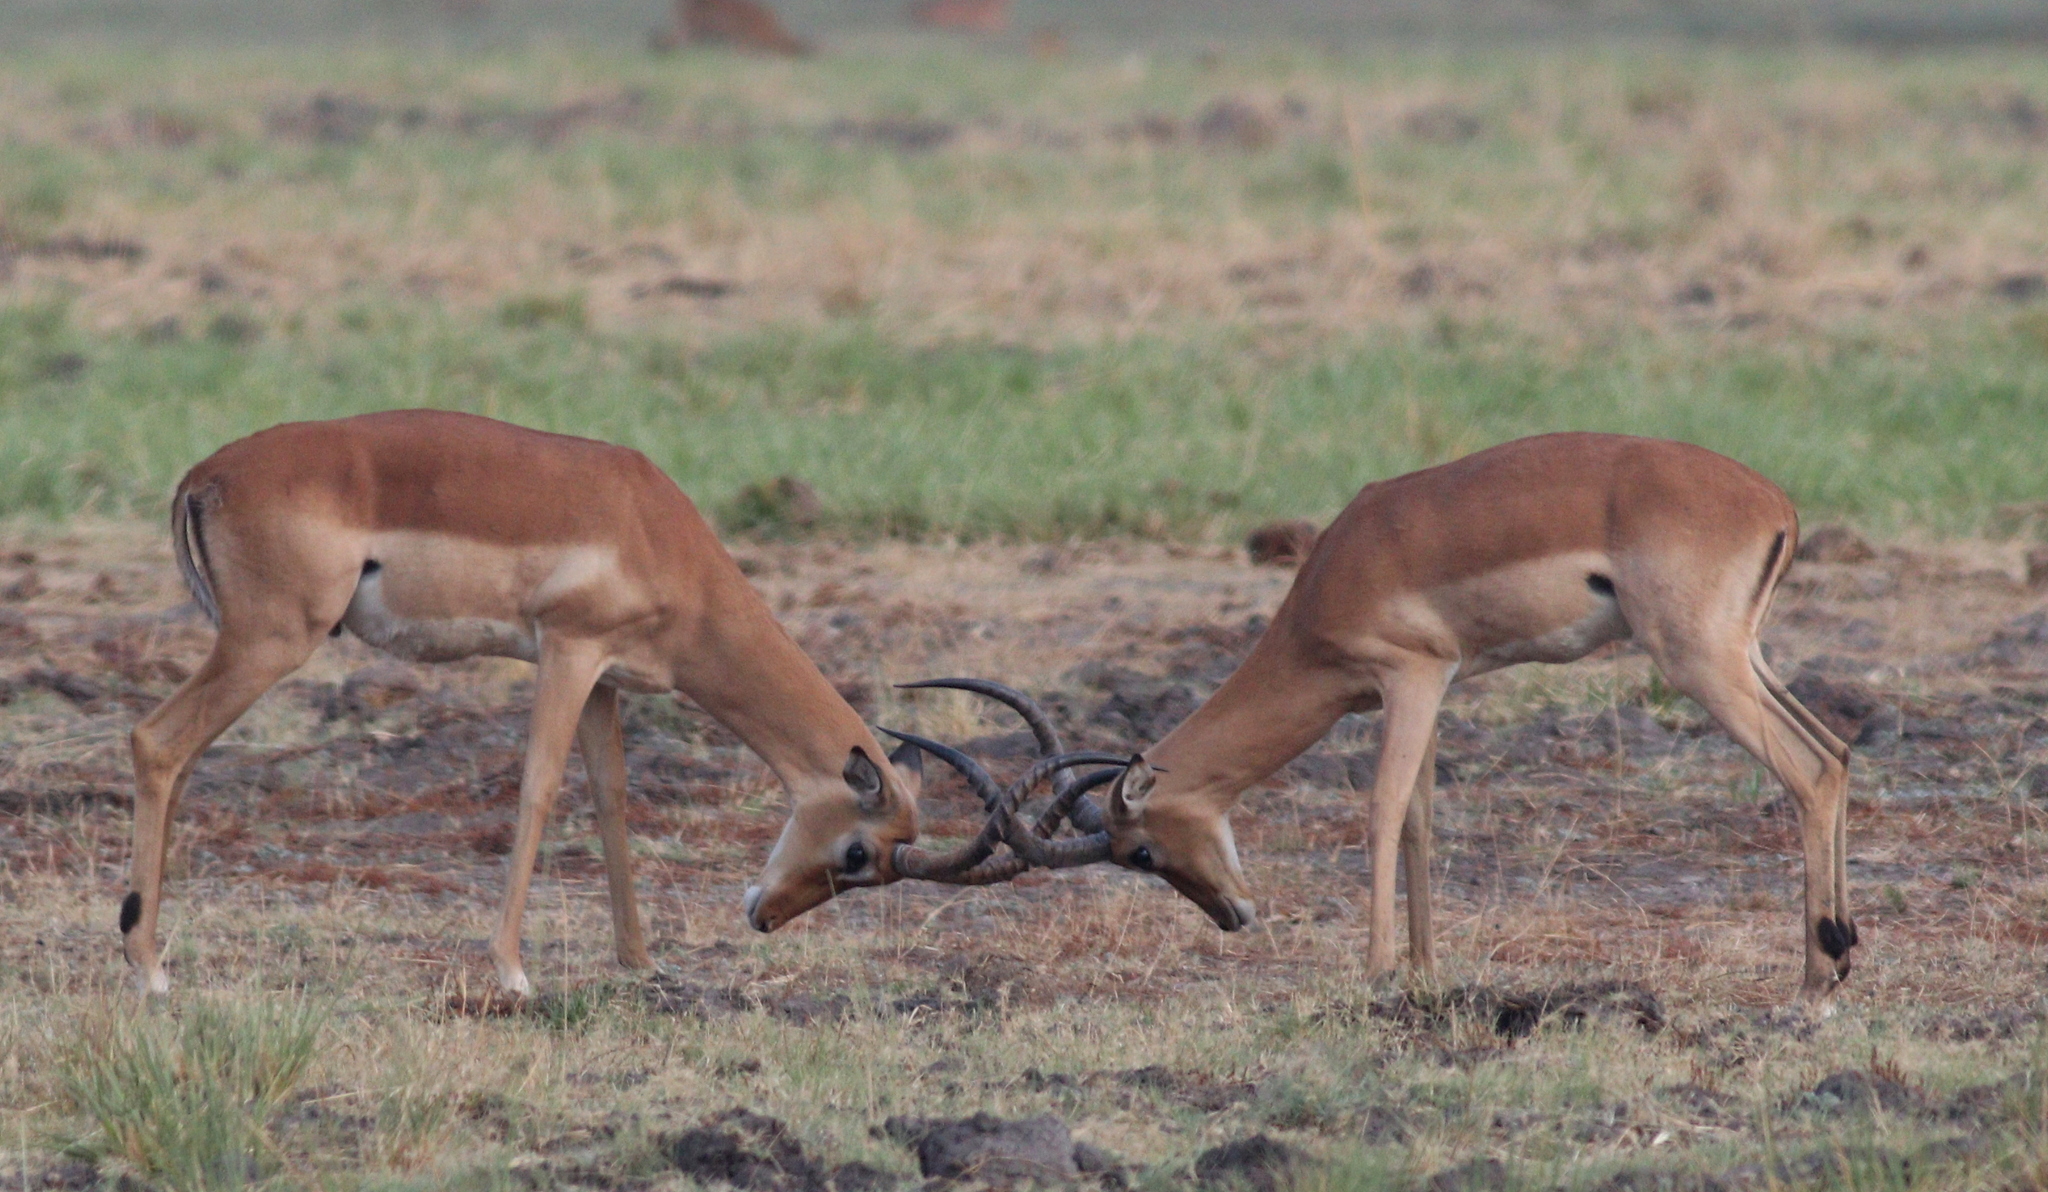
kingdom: Animalia
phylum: Chordata
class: Mammalia
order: Artiodactyla
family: Bovidae
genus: Aepyceros
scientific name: Aepyceros melampus
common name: Impala
